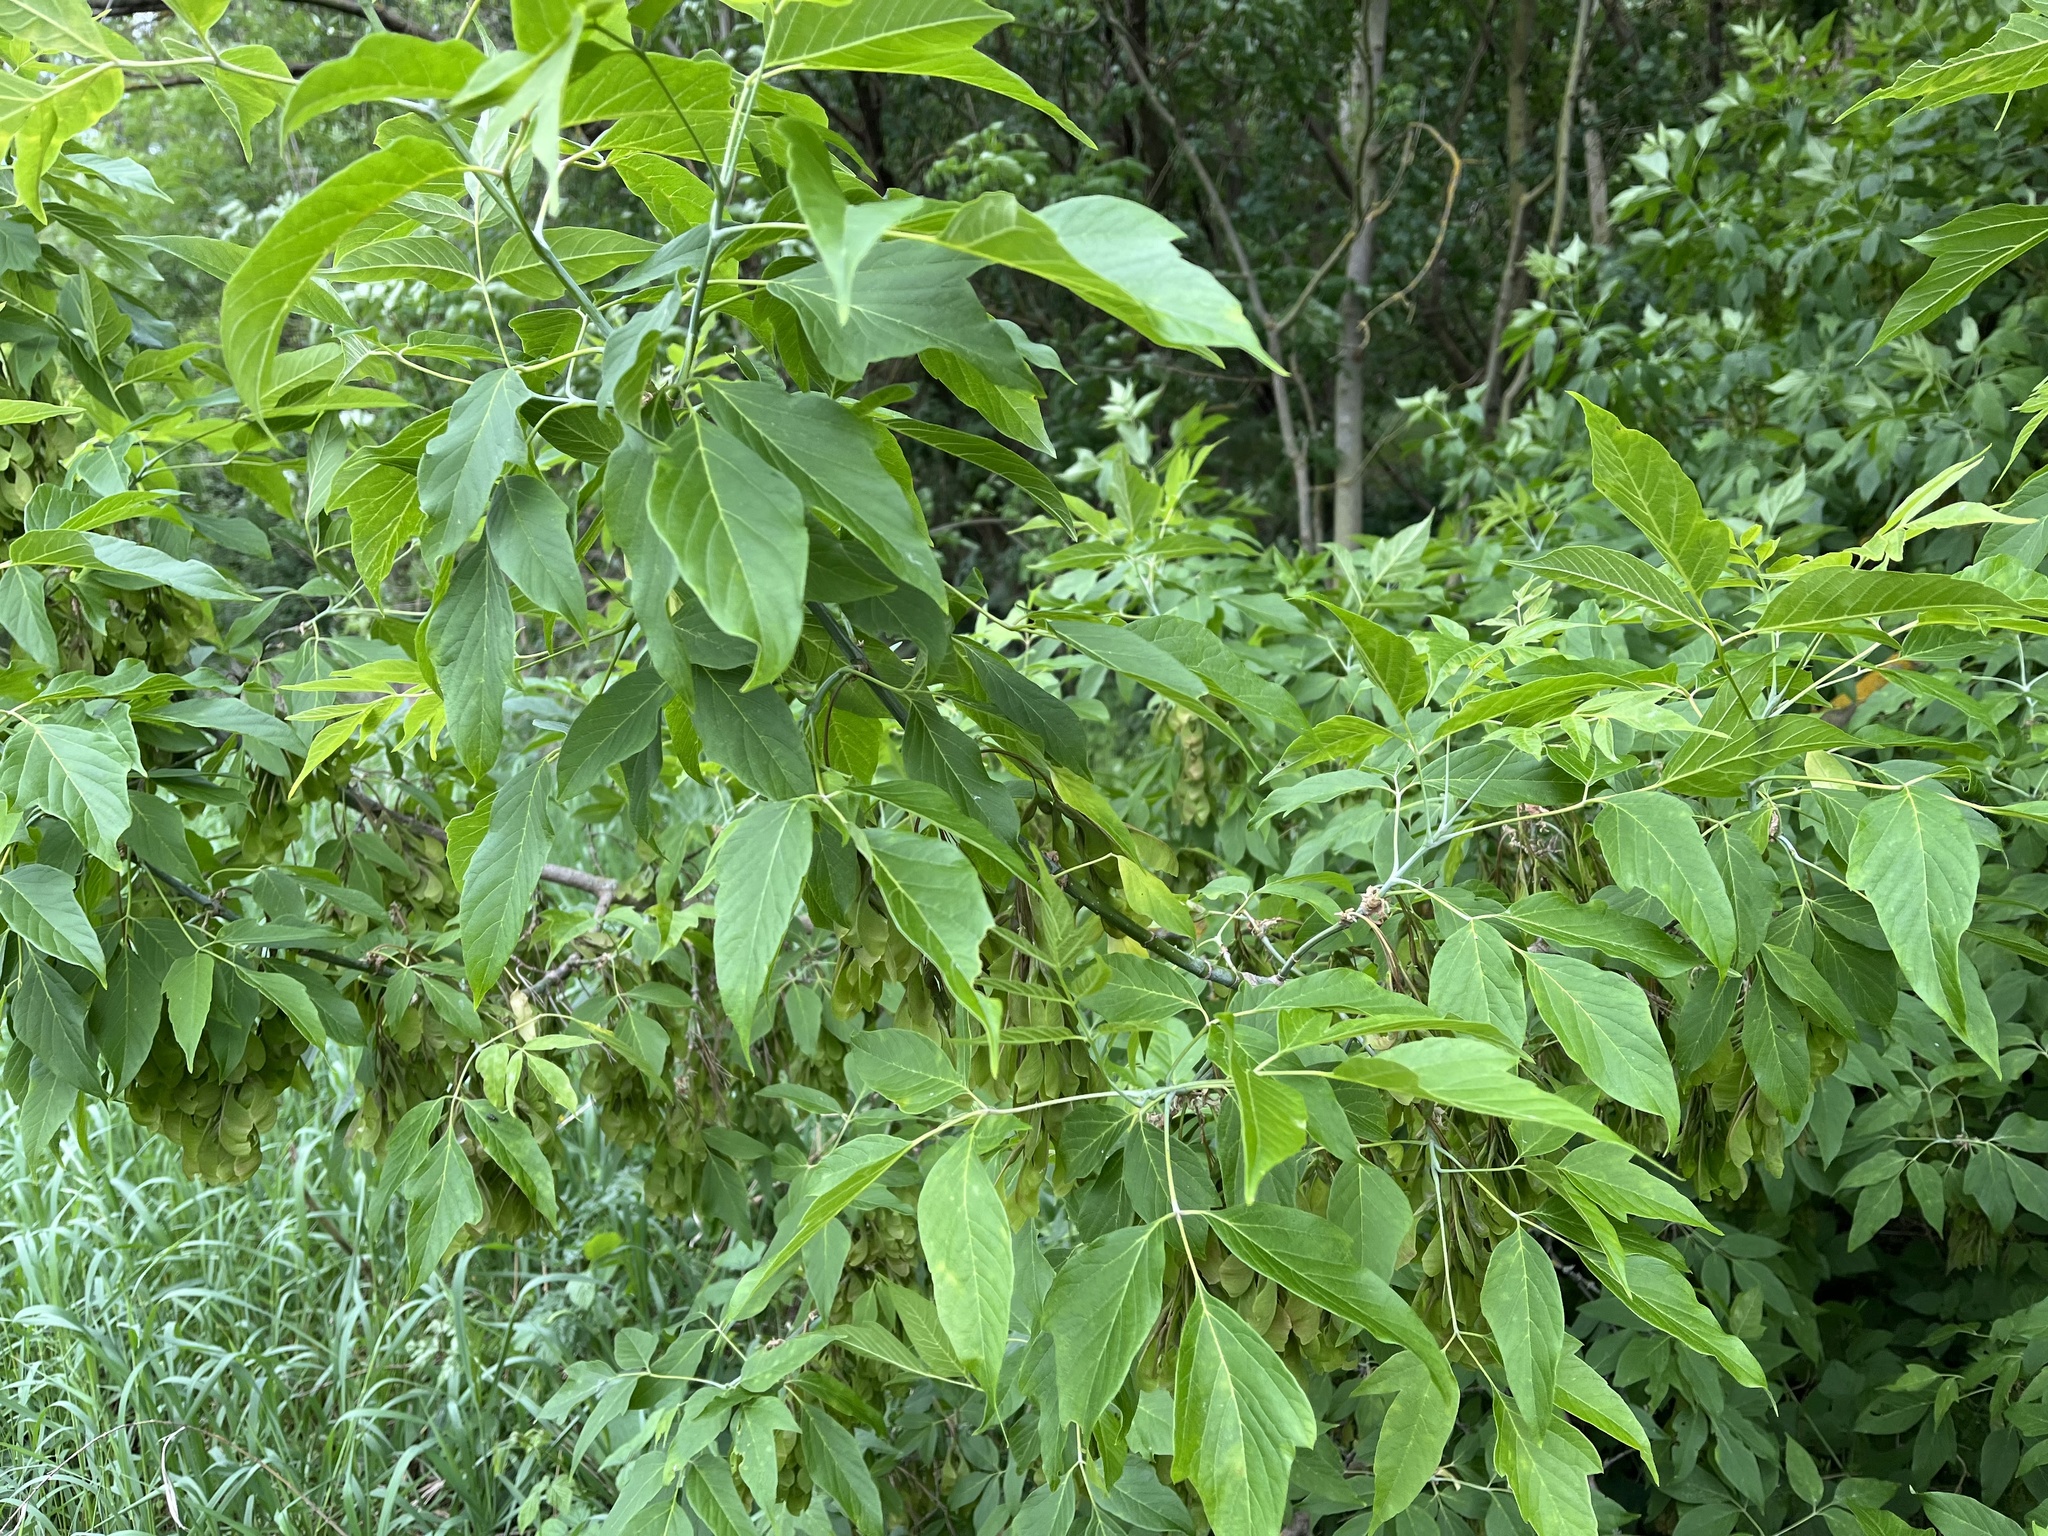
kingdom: Plantae
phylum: Tracheophyta
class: Magnoliopsida
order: Sapindales
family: Sapindaceae
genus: Acer
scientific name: Acer negundo
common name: Ashleaf maple
